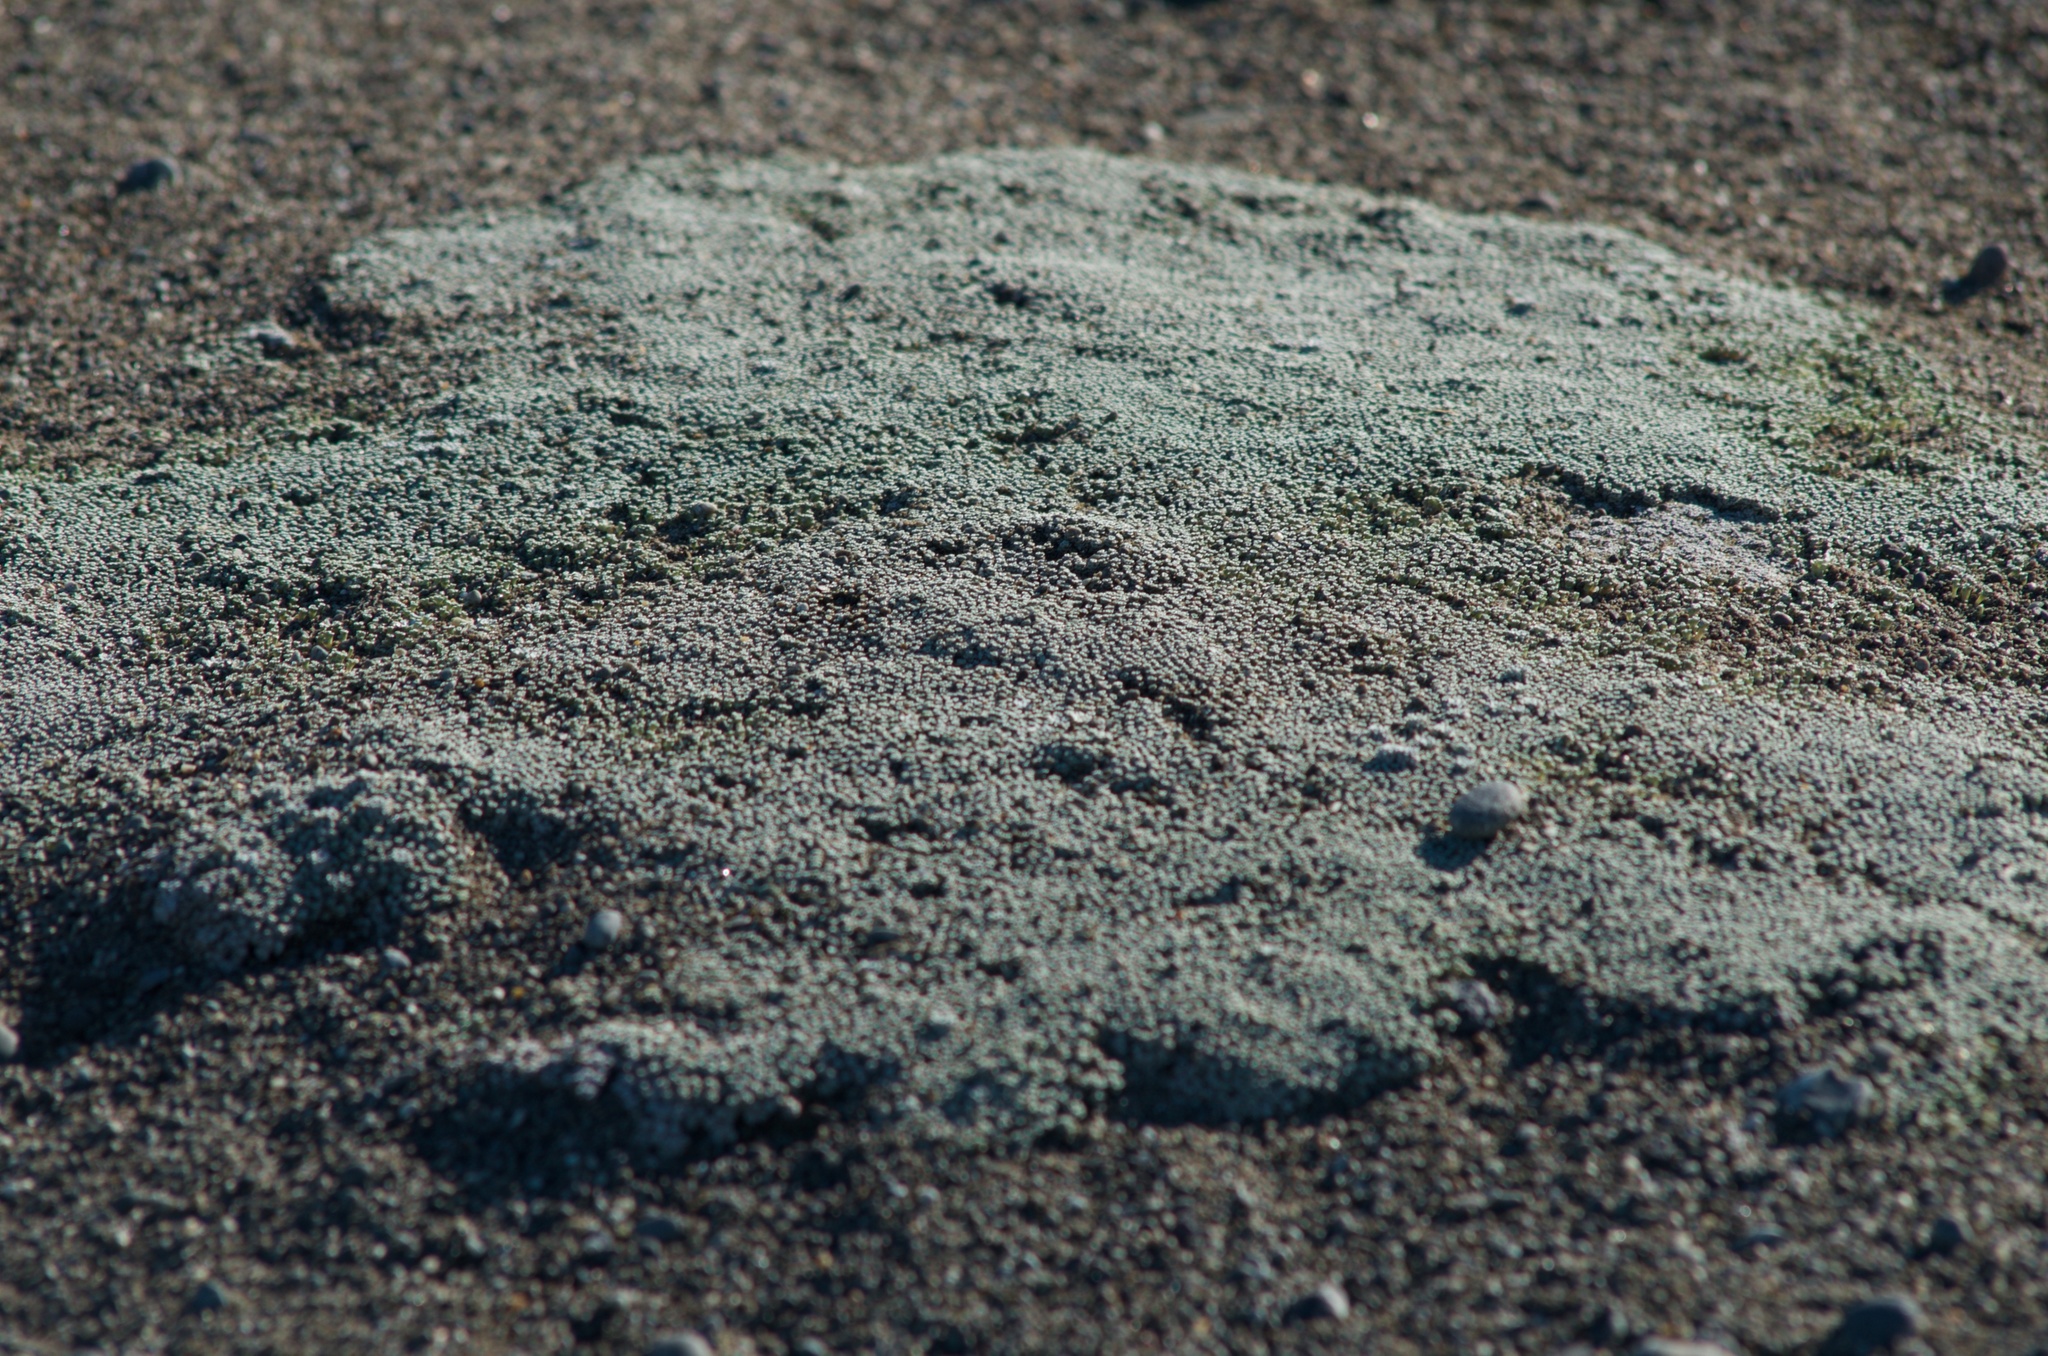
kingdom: Plantae
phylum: Tracheophyta
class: Magnoliopsida
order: Asterales
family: Asteraceae
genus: Raoulia
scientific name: Raoulia australis
